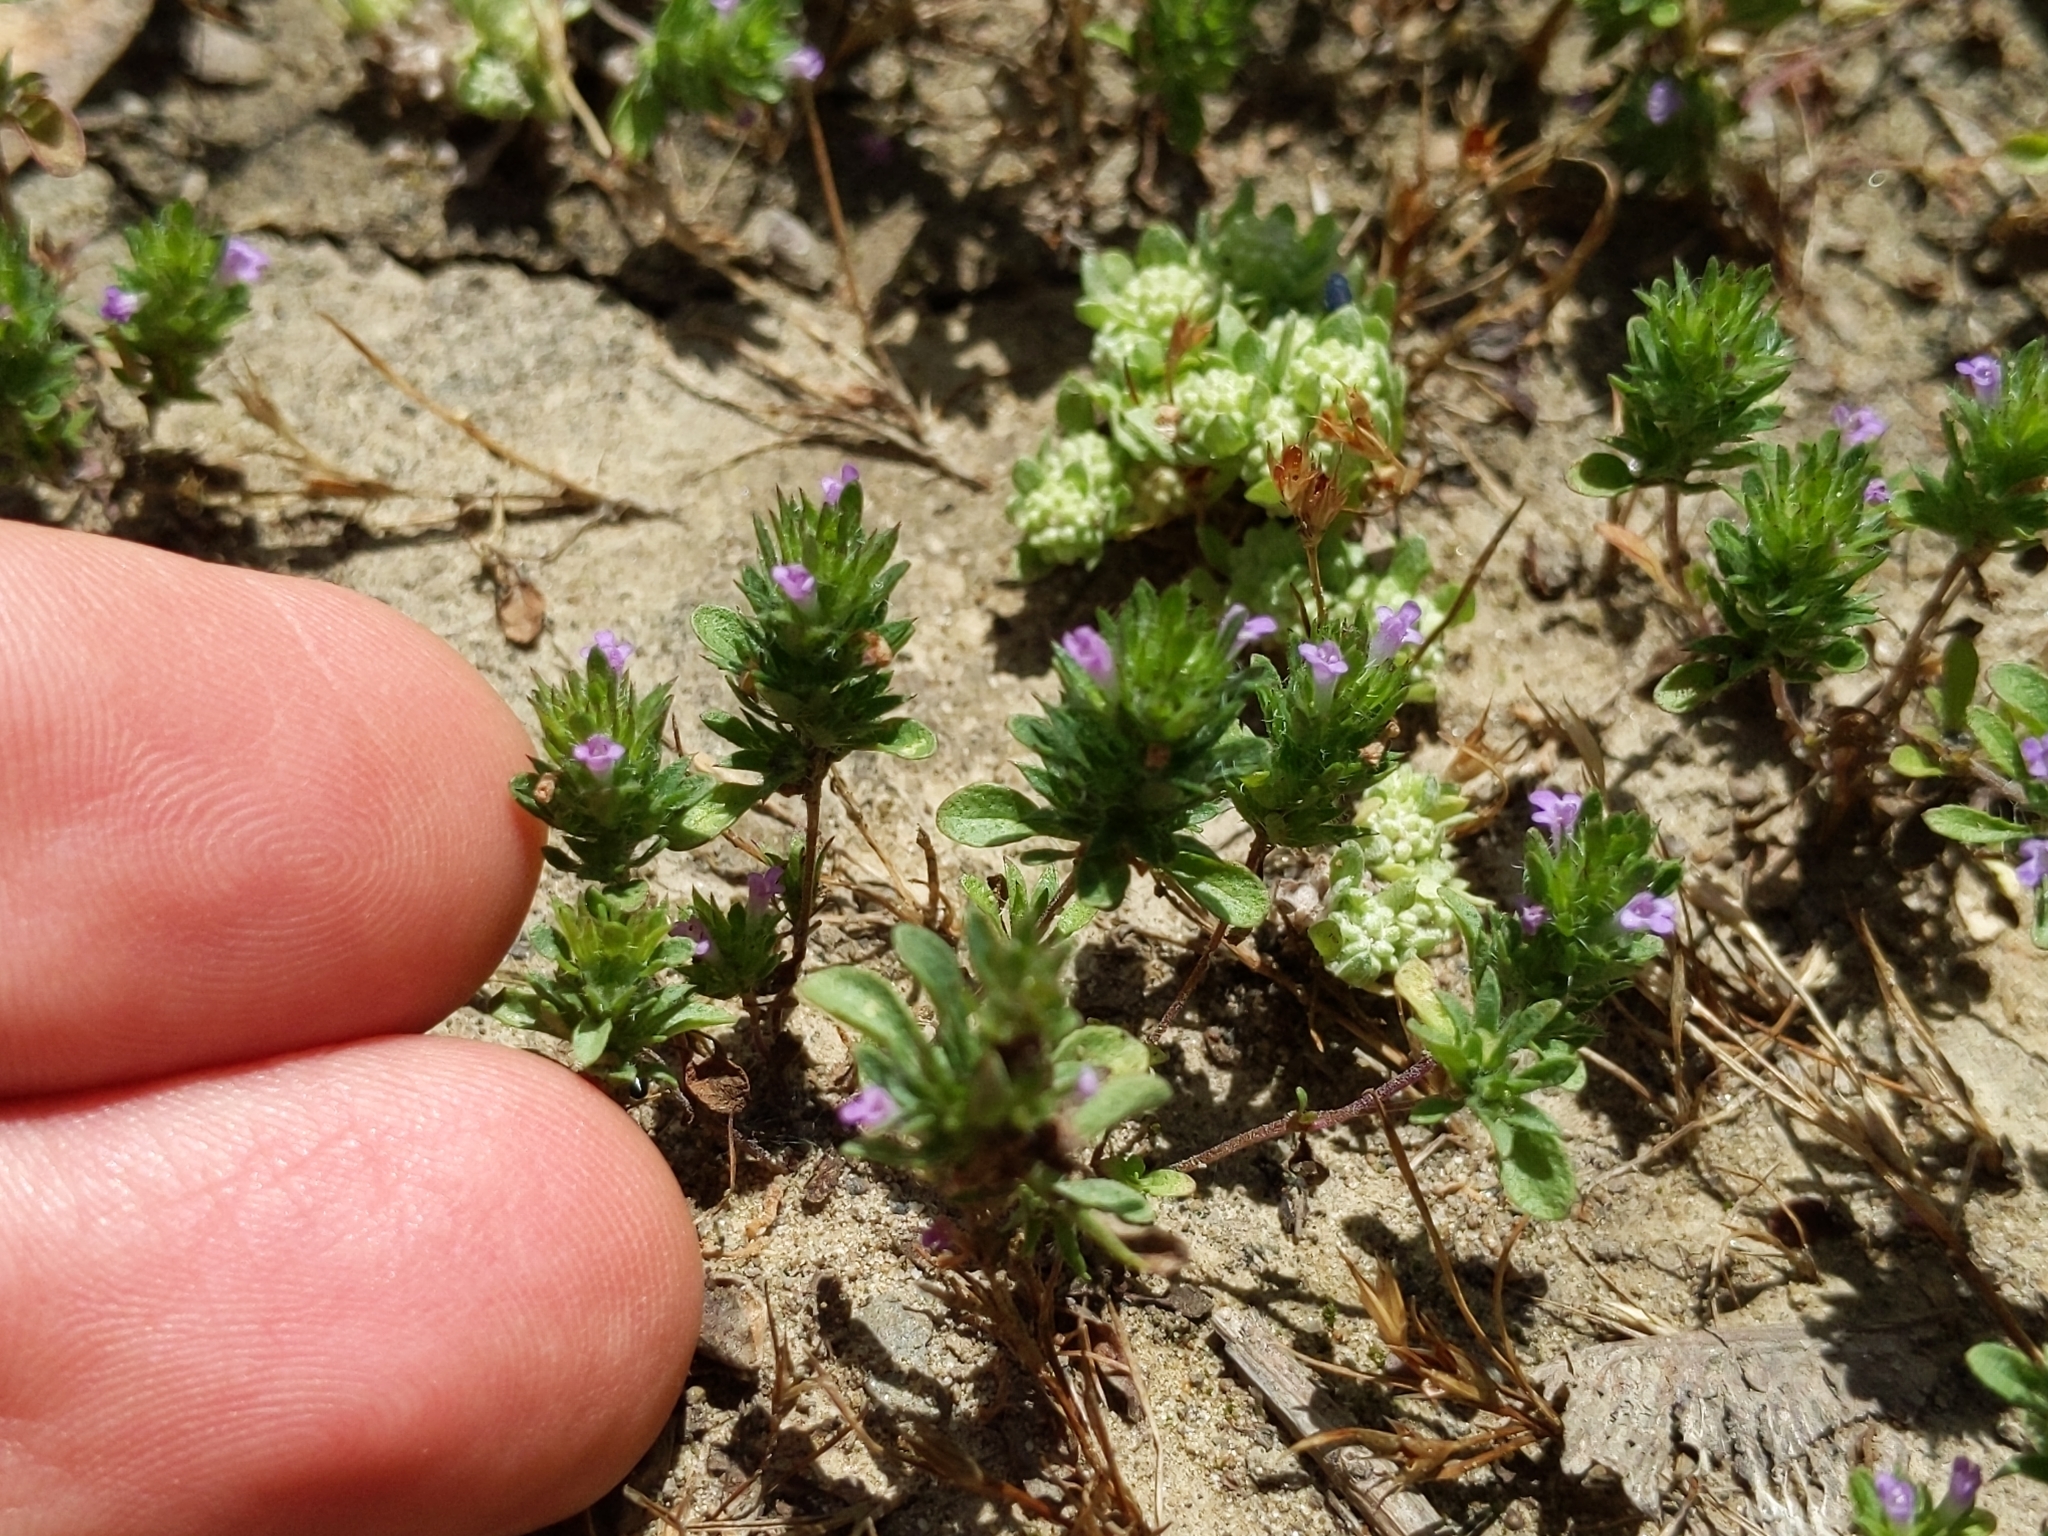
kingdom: Plantae
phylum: Tracheophyta
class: Magnoliopsida
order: Lamiales
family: Lamiaceae
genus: Pogogyne
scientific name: Pogogyne serpylloides
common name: Thymeleaf mesamint
